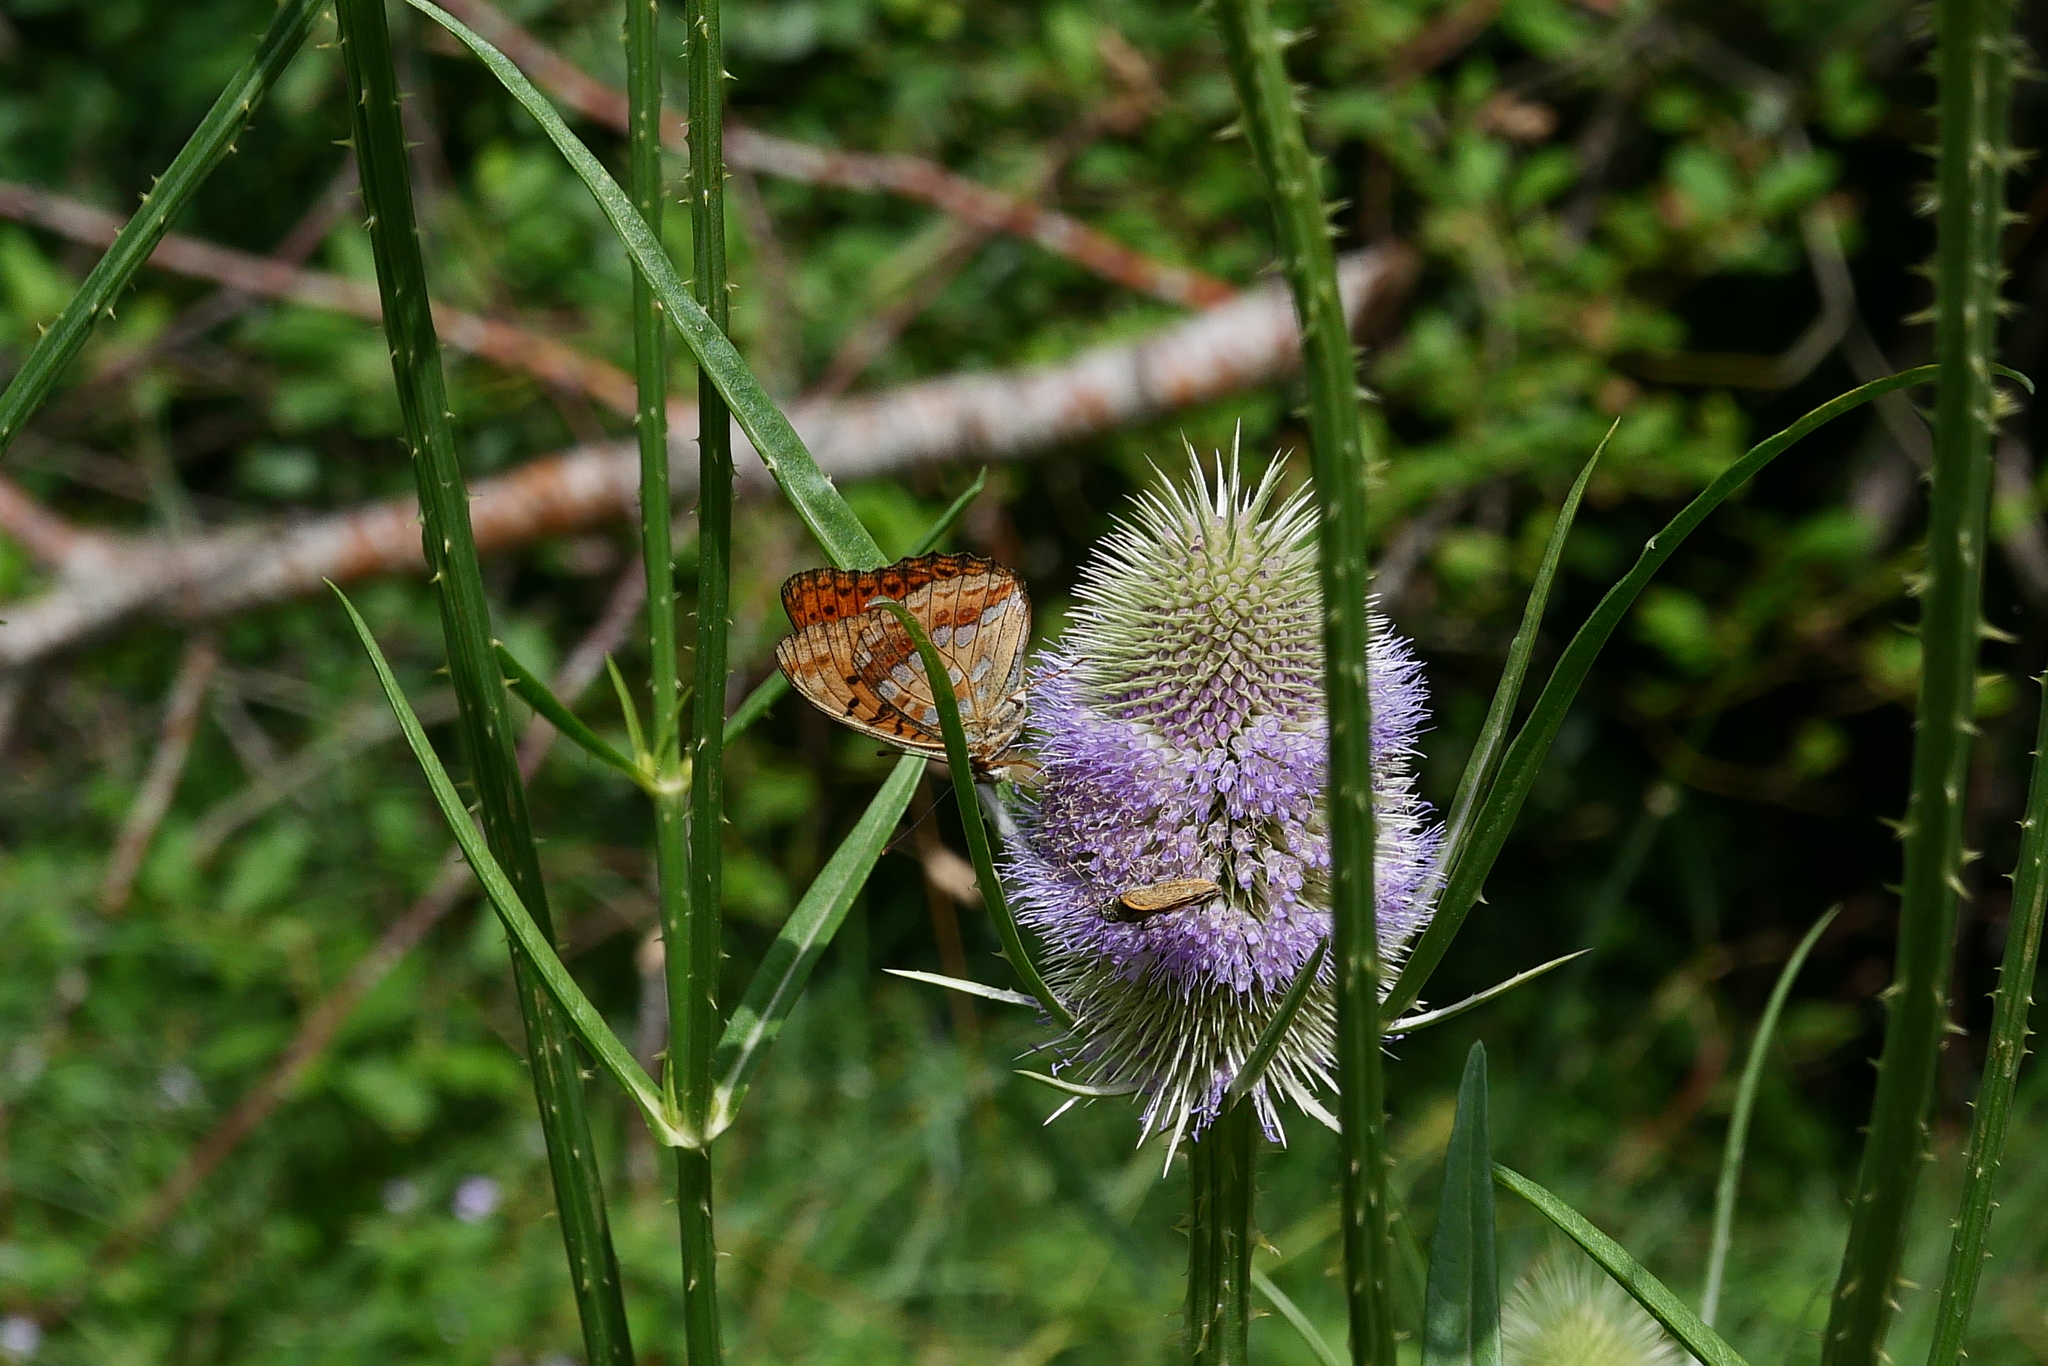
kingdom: Animalia
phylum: Arthropoda
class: Insecta
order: Lepidoptera
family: Nymphalidae
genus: Fabriciana
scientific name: Fabriciana adippe
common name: High brown fritillary
